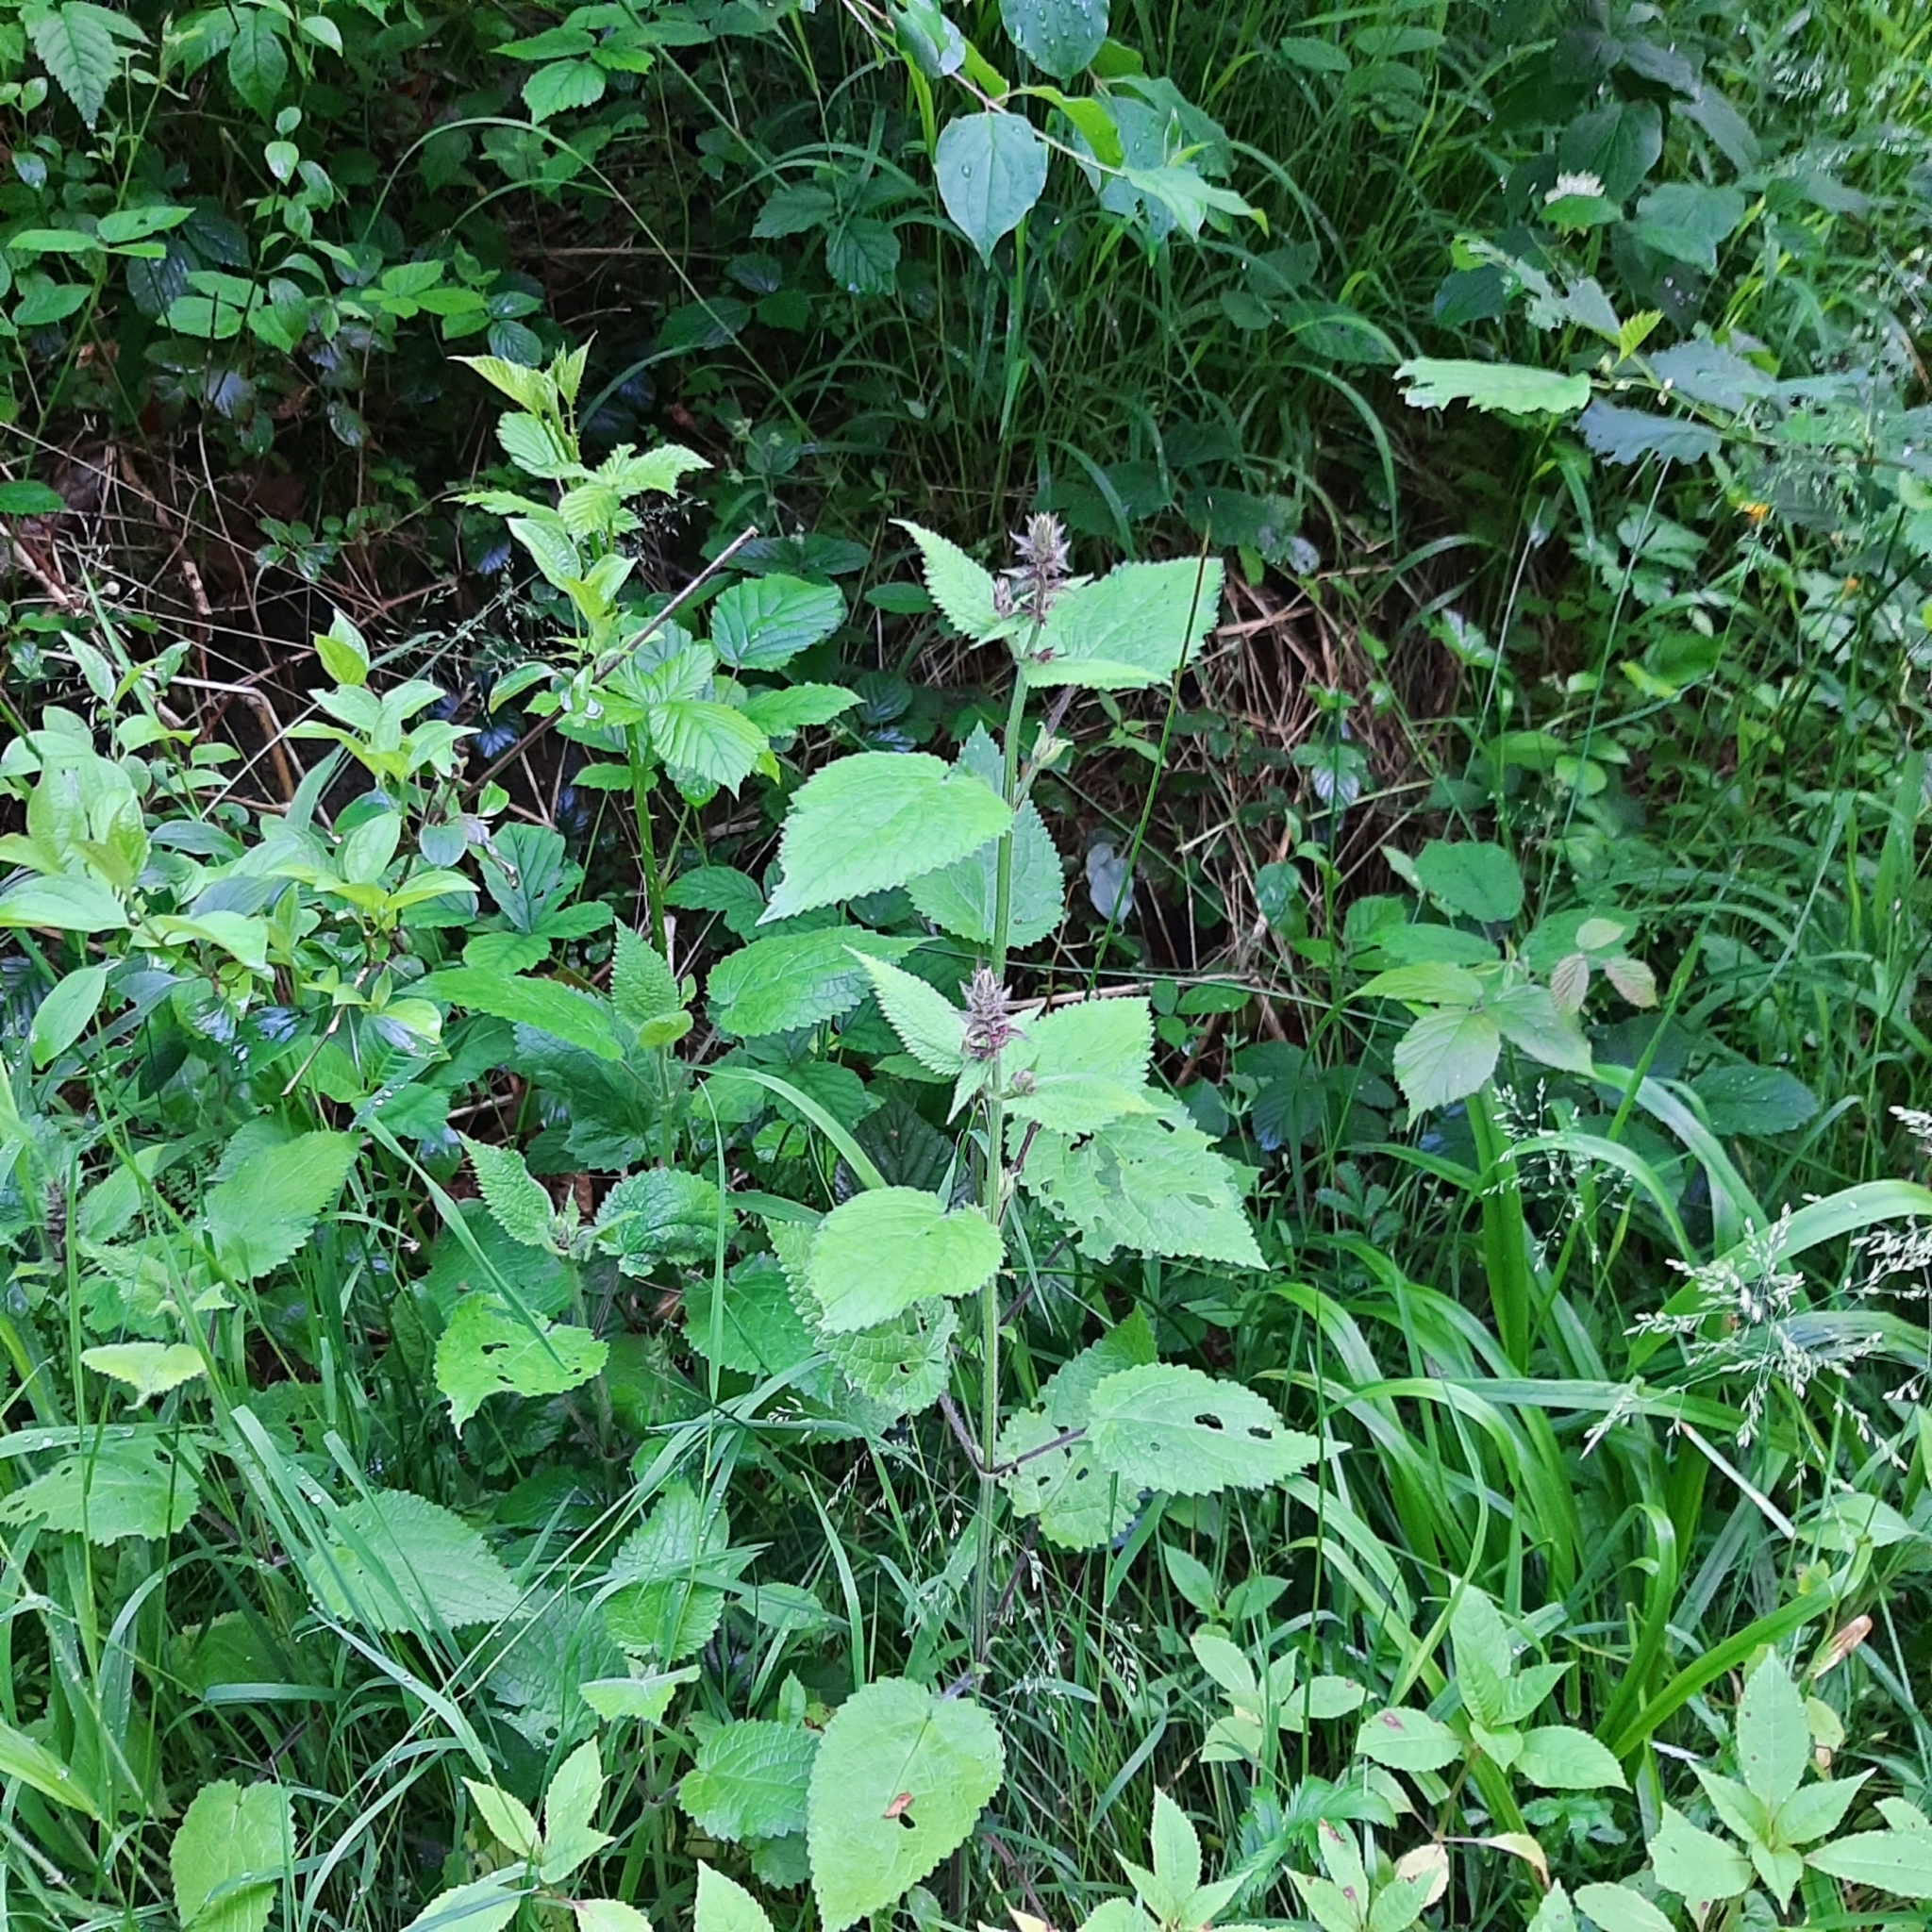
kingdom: Plantae
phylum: Tracheophyta
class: Magnoliopsida
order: Lamiales
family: Lamiaceae
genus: Stachys
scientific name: Stachys sylvatica
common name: Hedge woundwort
